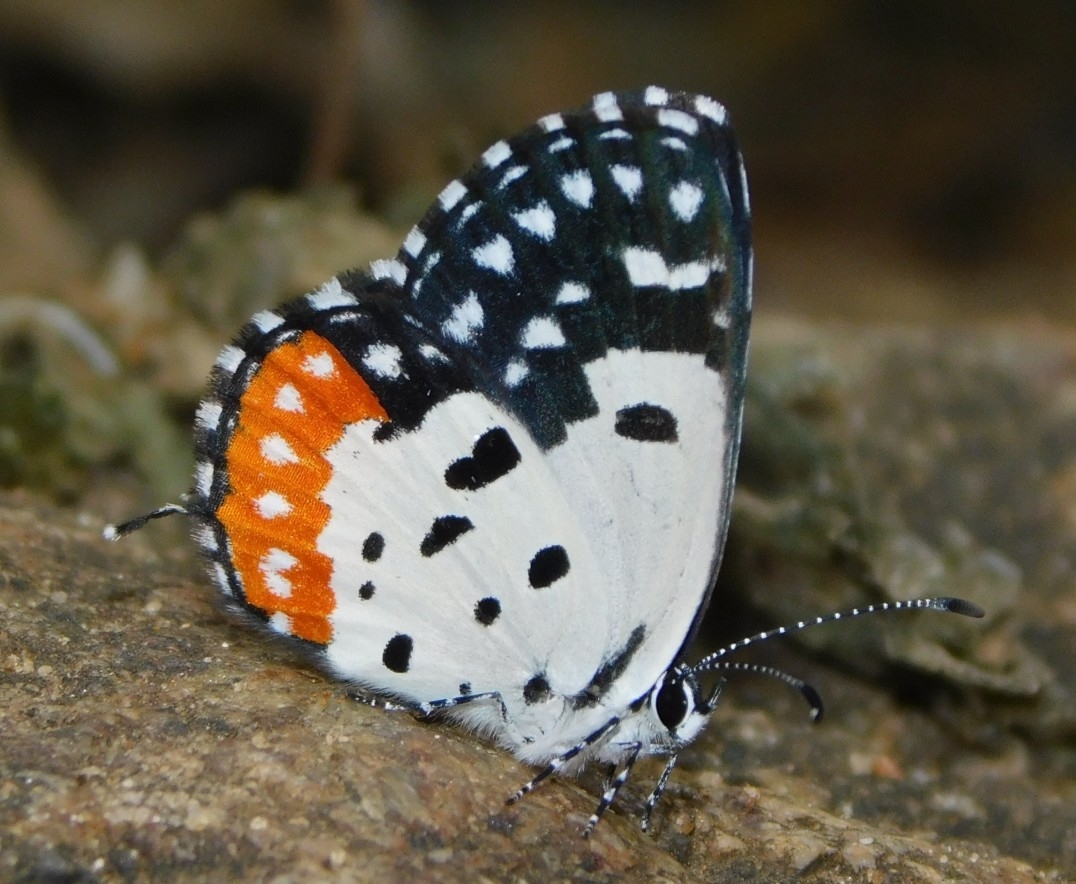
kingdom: Animalia
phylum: Arthropoda
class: Insecta
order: Lepidoptera
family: Lycaenidae
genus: Talicada
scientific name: Talicada nyseus
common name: Red pierrot
